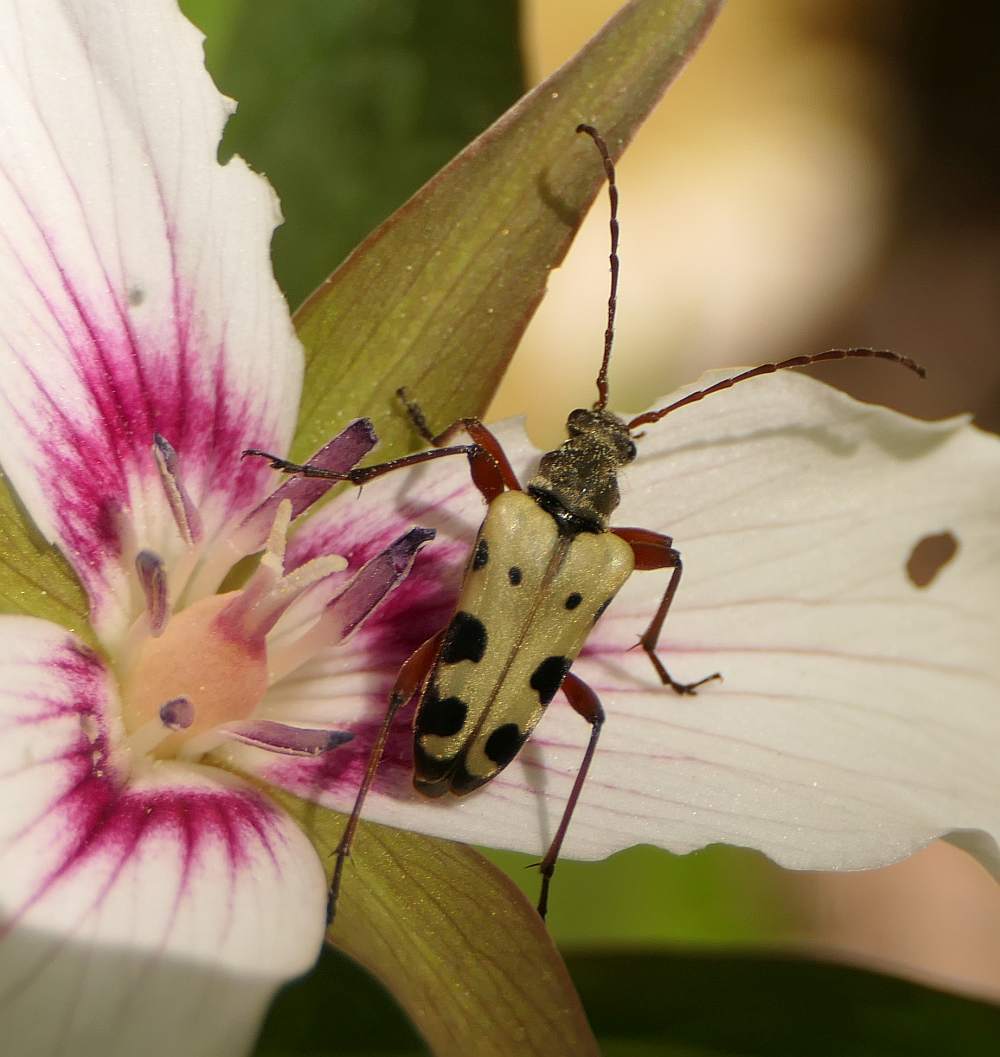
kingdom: Animalia
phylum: Arthropoda
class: Insecta
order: Coleoptera
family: Cerambycidae
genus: Evodinus
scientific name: Evodinus monticola
